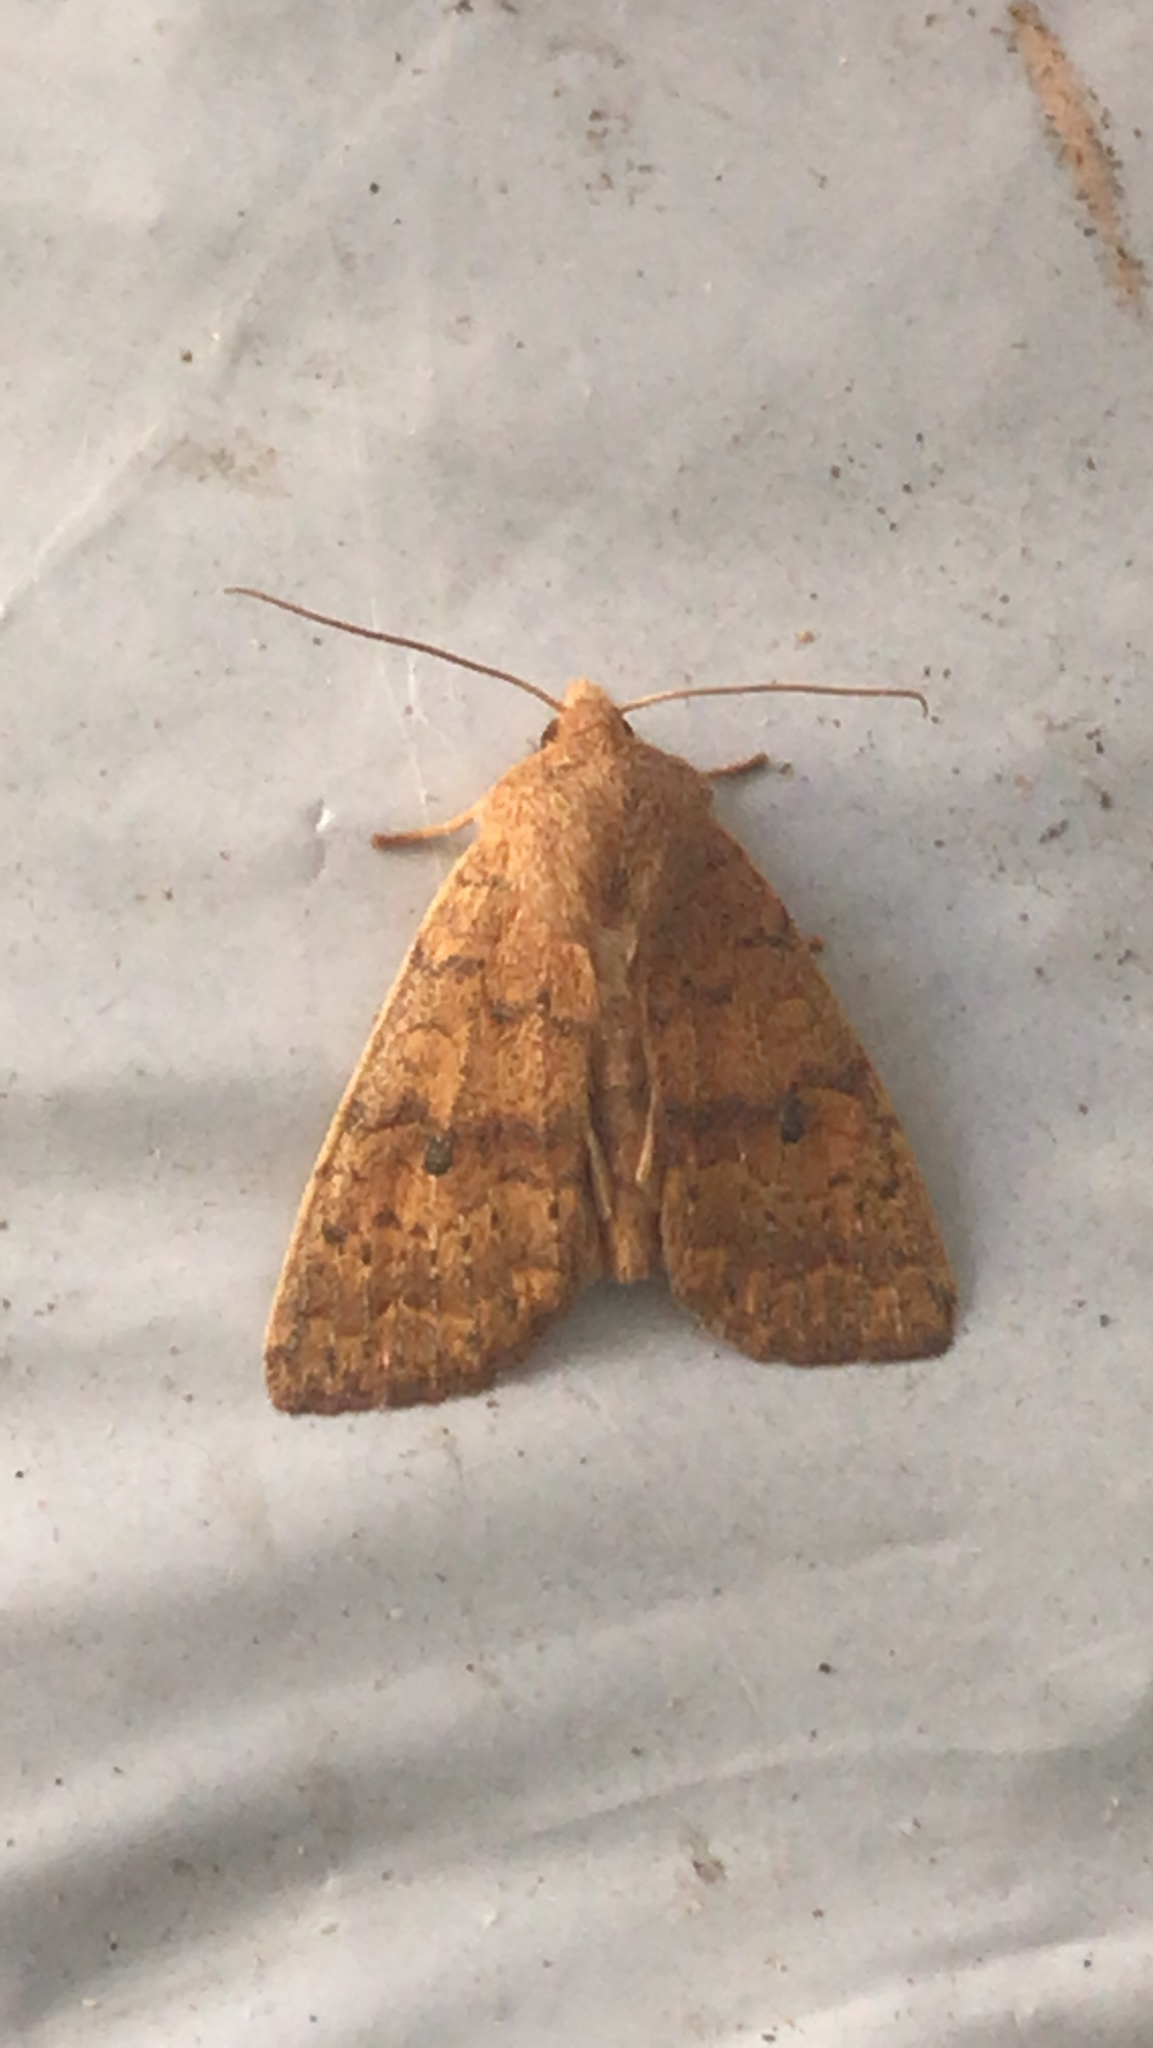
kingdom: Animalia
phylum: Arthropoda
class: Insecta
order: Lepidoptera
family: Noctuidae
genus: Agrochola
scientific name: Agrochola bicolorago
